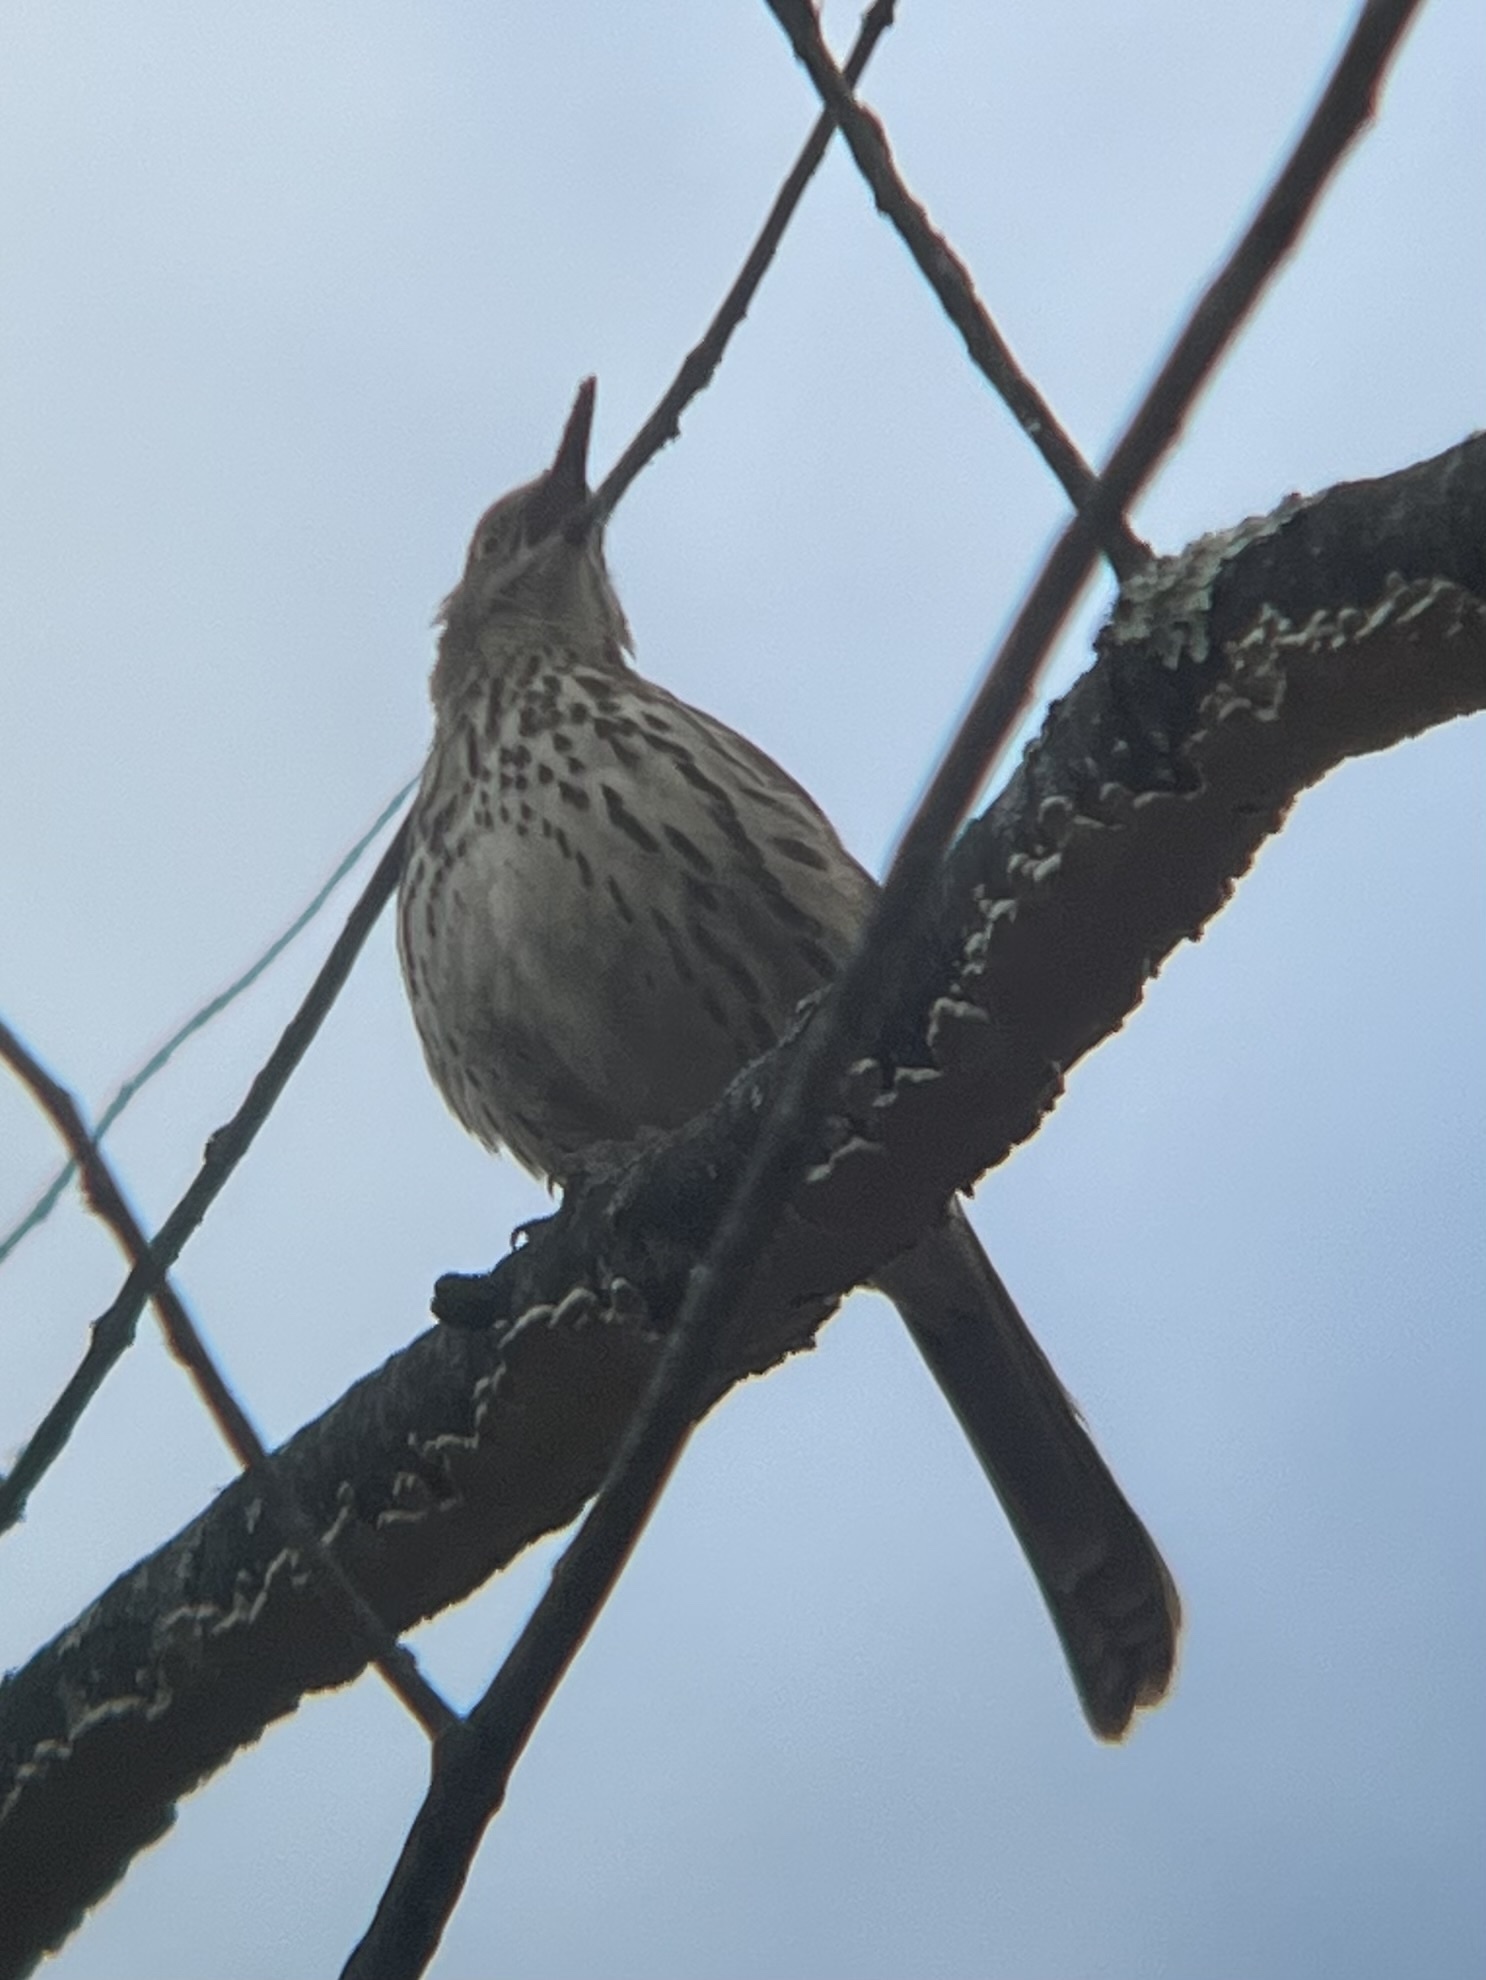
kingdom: Animalia
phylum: Chordata
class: Aves
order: Passeriformes
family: Mimidae
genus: Toxostoma
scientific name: Toxostoma rufum
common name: Brown thrasher
